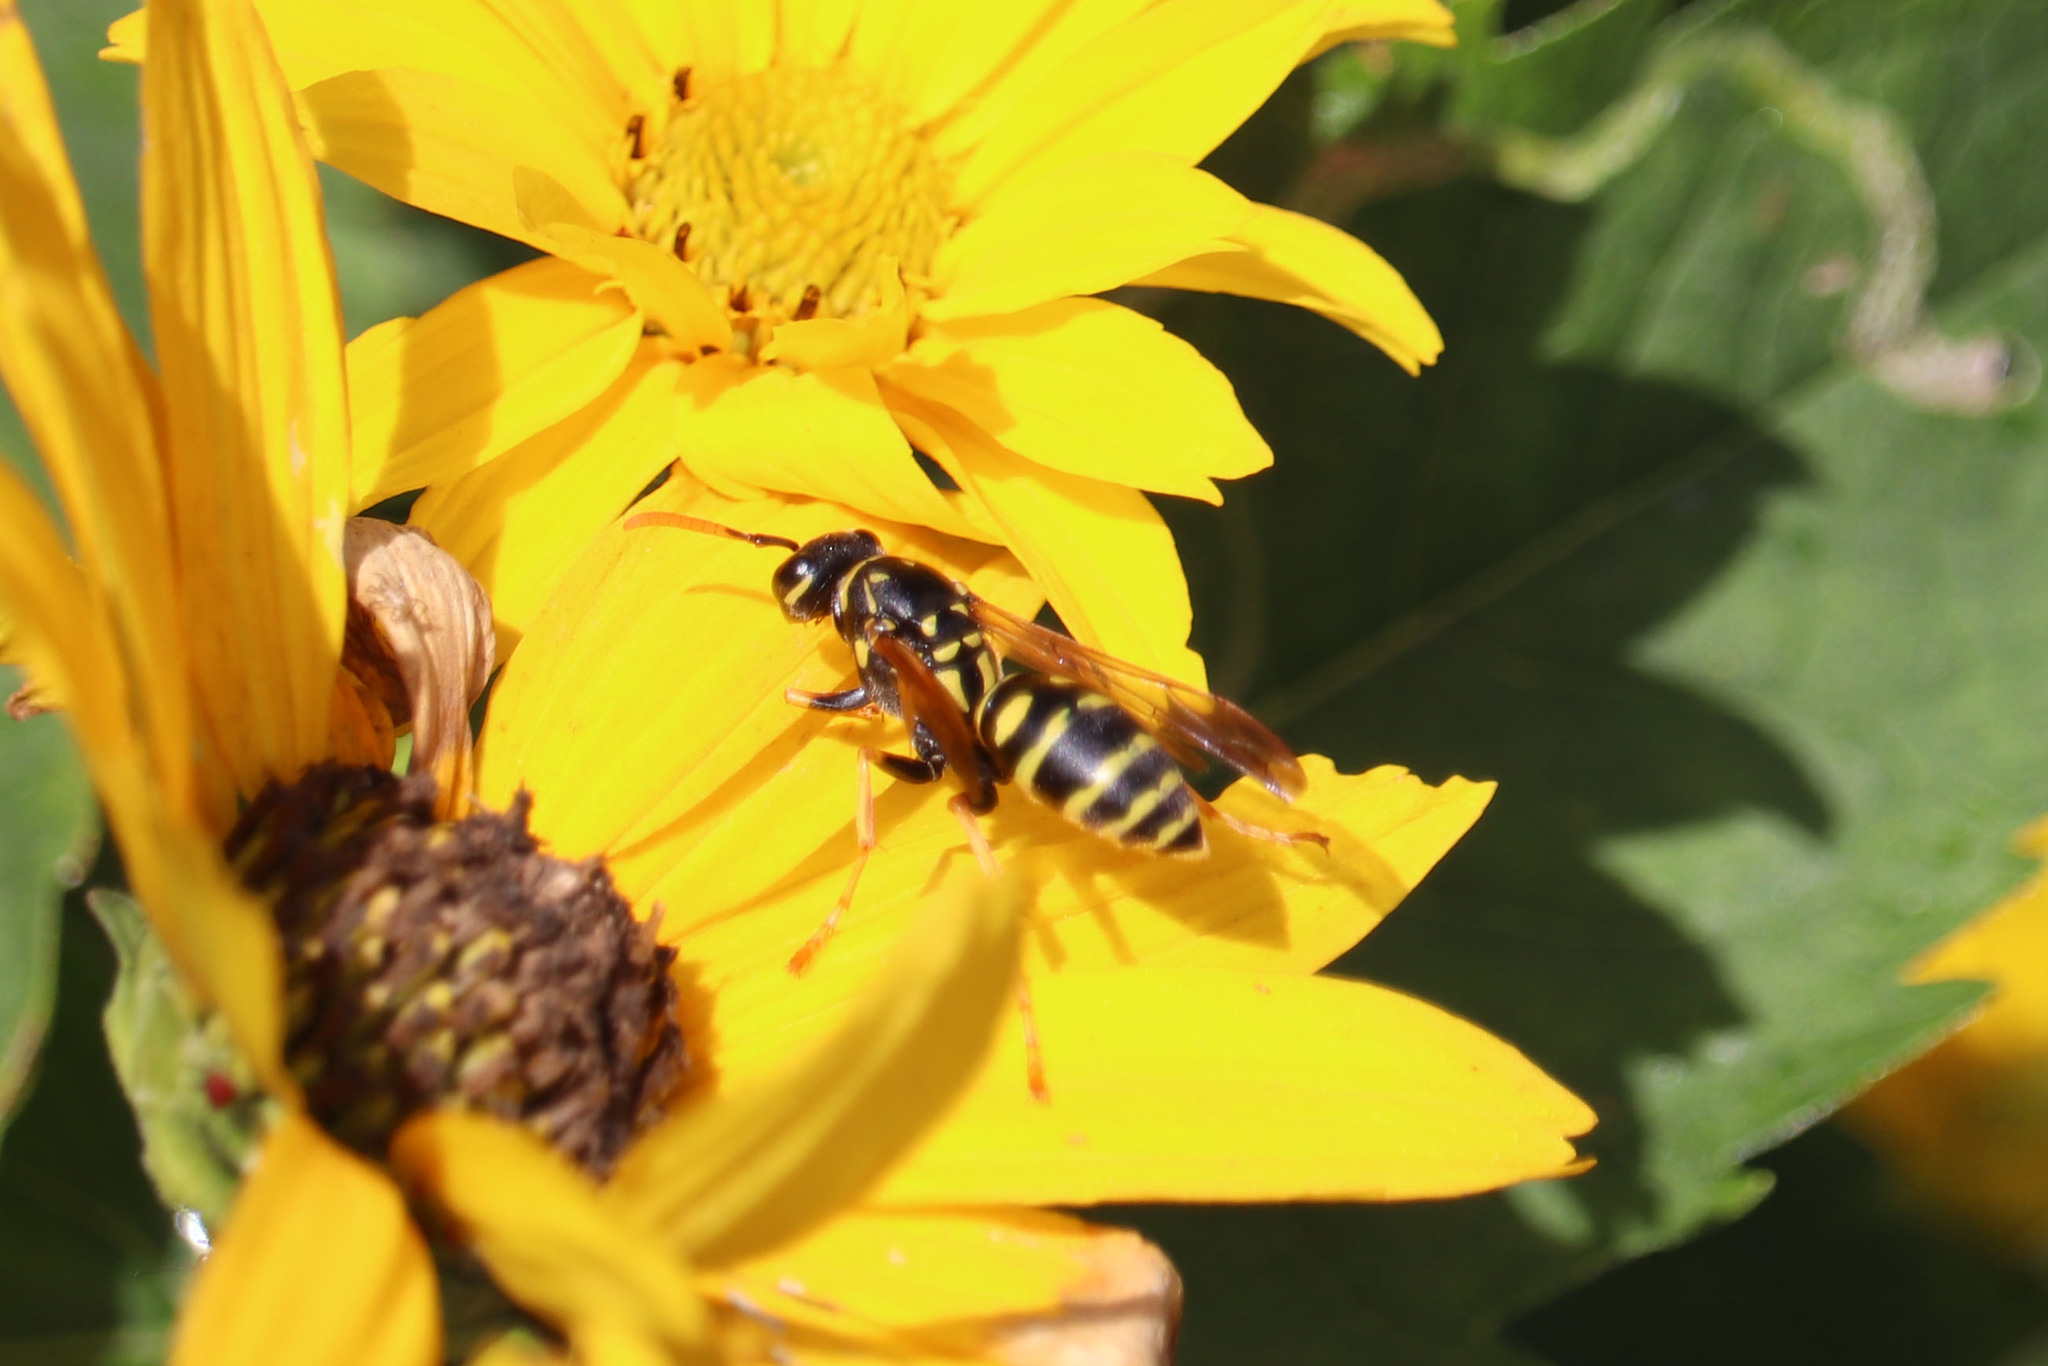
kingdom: Animalia
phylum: Arthropoda
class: Insecta
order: Hymenoptera
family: Eumenidae
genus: Polistes
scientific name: Polistes dominula
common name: Paper wasp
